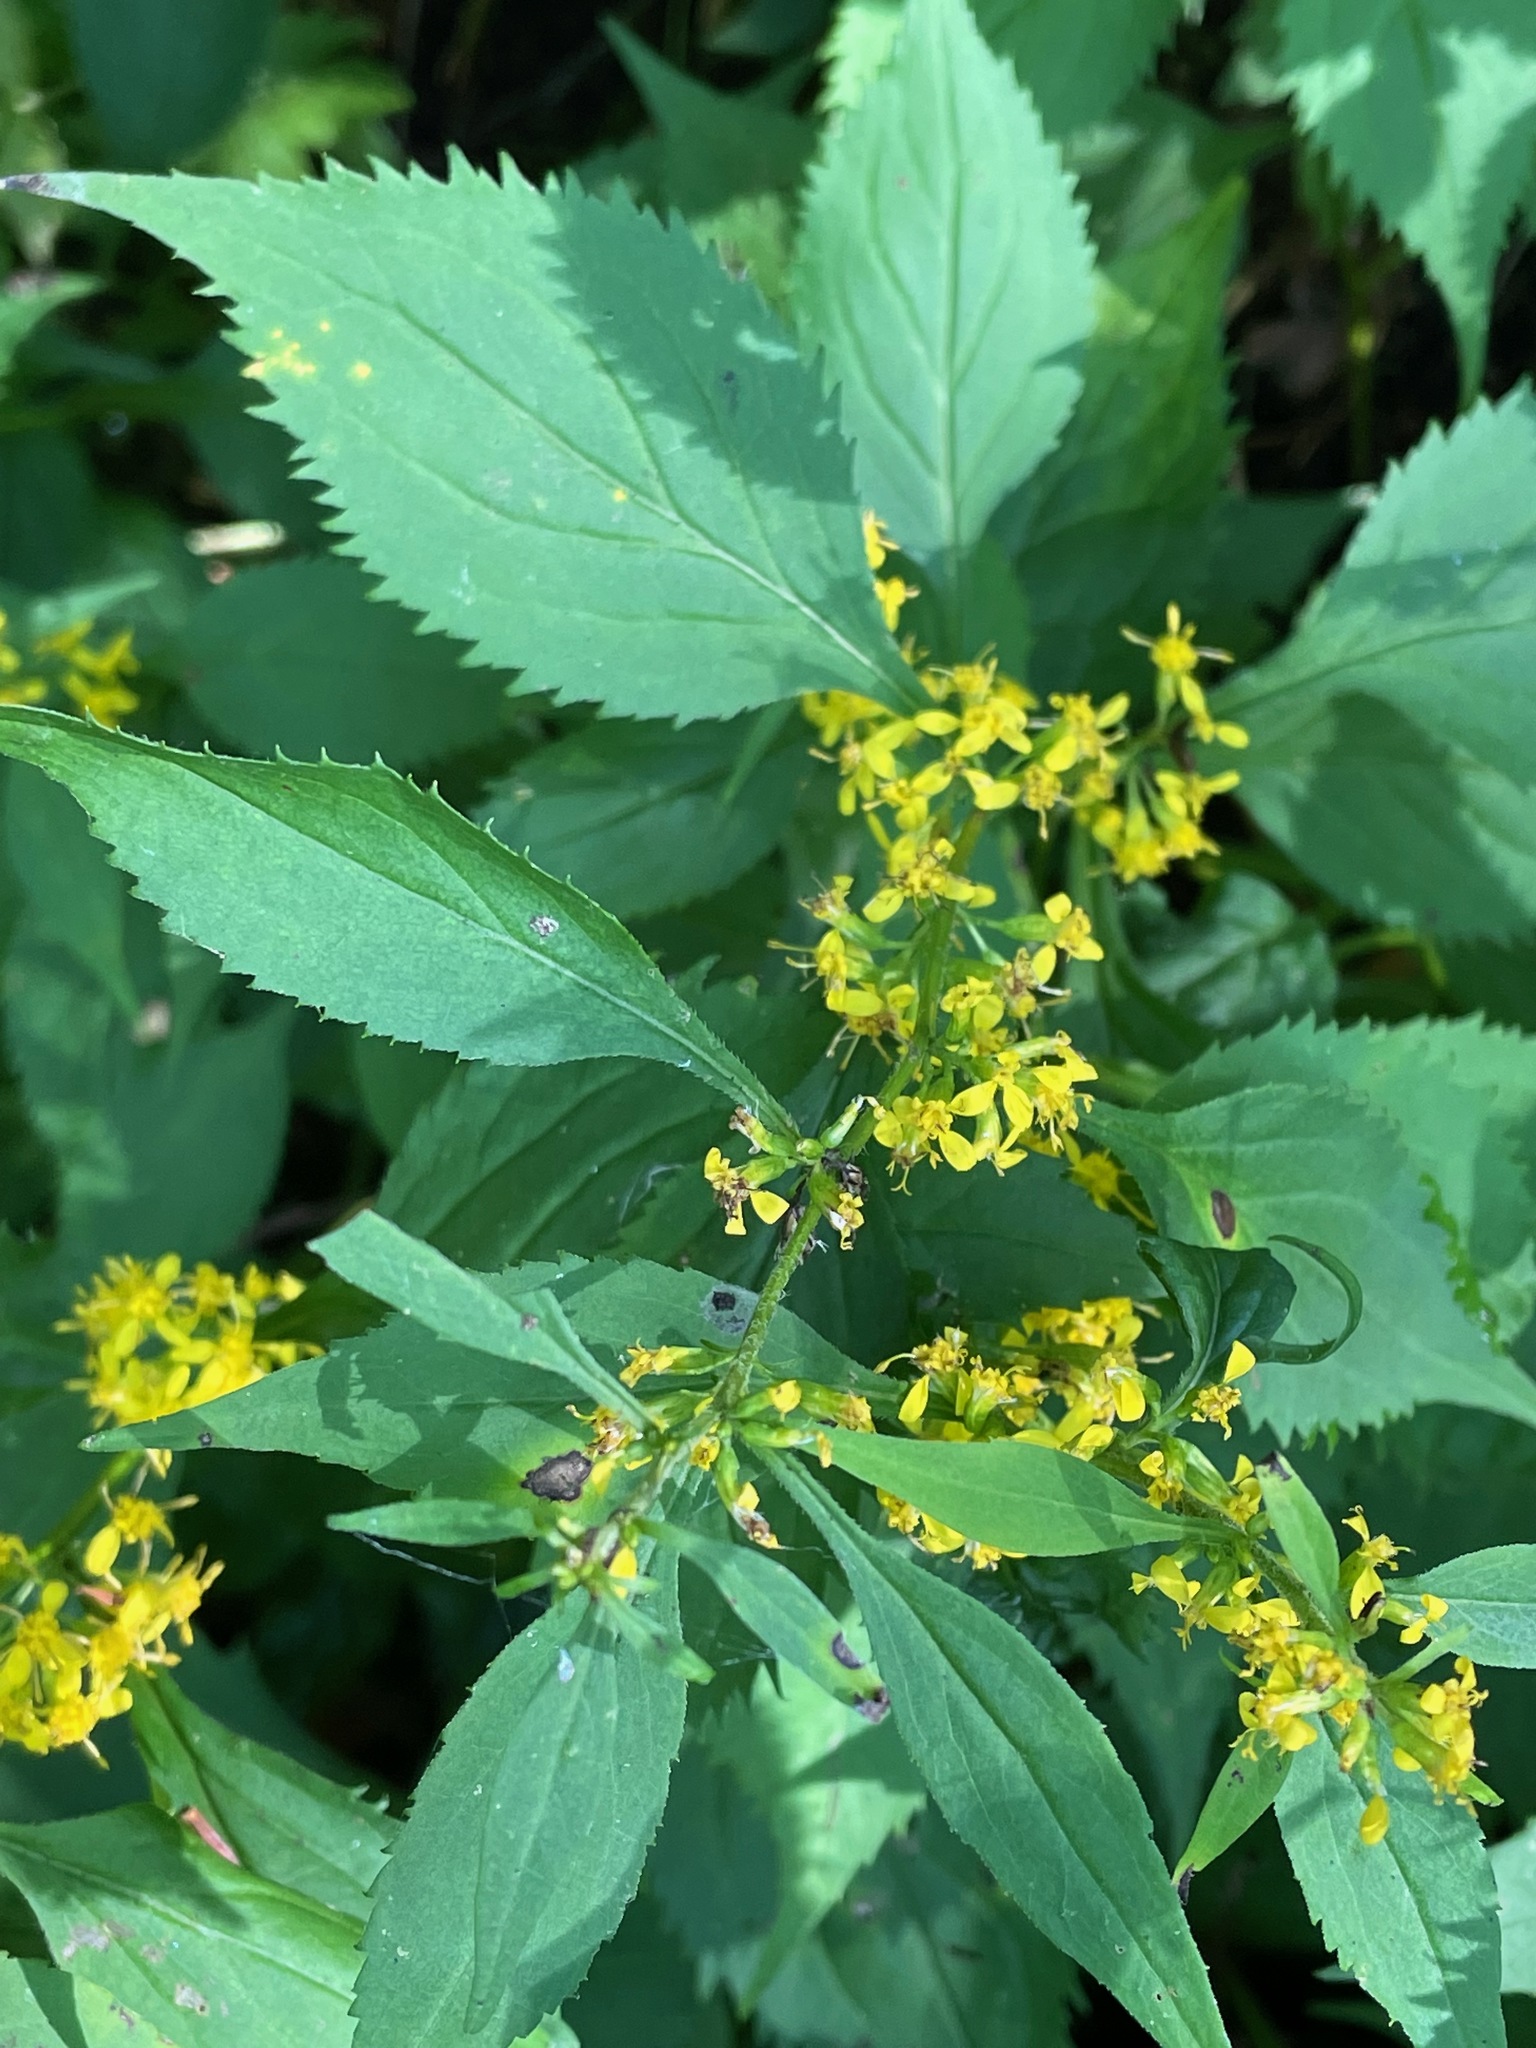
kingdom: Plantae
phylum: Tracheophyta
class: Magnoliopsida
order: Asterales
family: Asteraceae
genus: Solidago
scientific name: Solidago flexicaulis
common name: Zig-zag goldenrod
